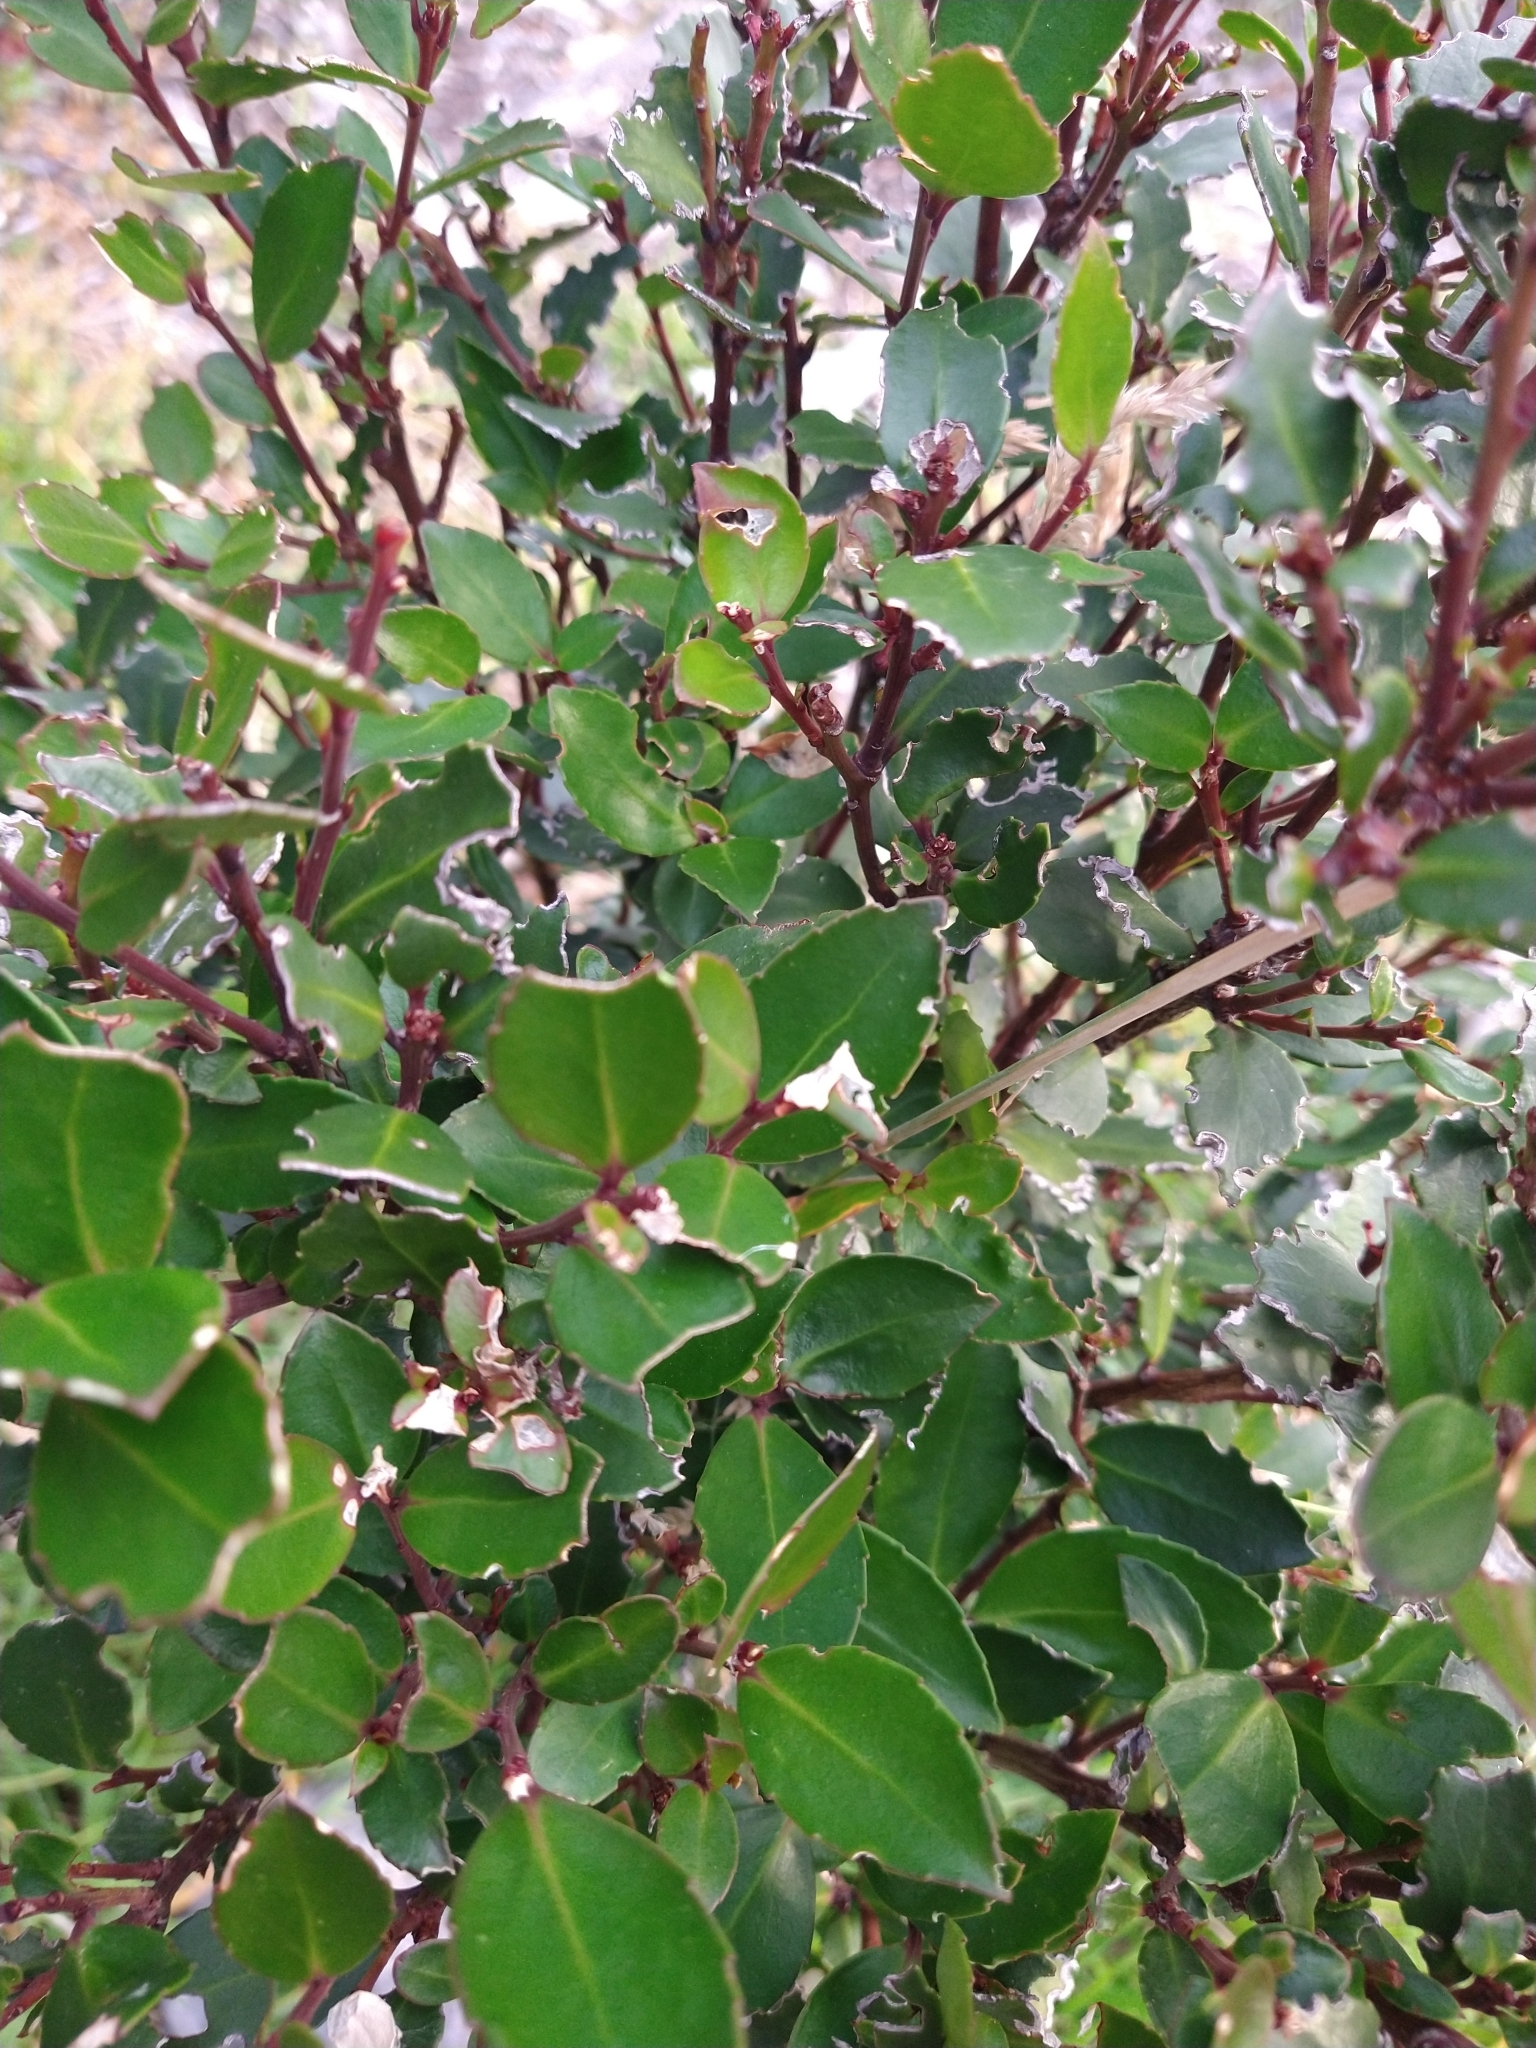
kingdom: Plantae
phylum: Tracheophyta
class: Magnoliopsida
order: Celastrales
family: Celastraceae
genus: Maytenus
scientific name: Maytenus magellanica
